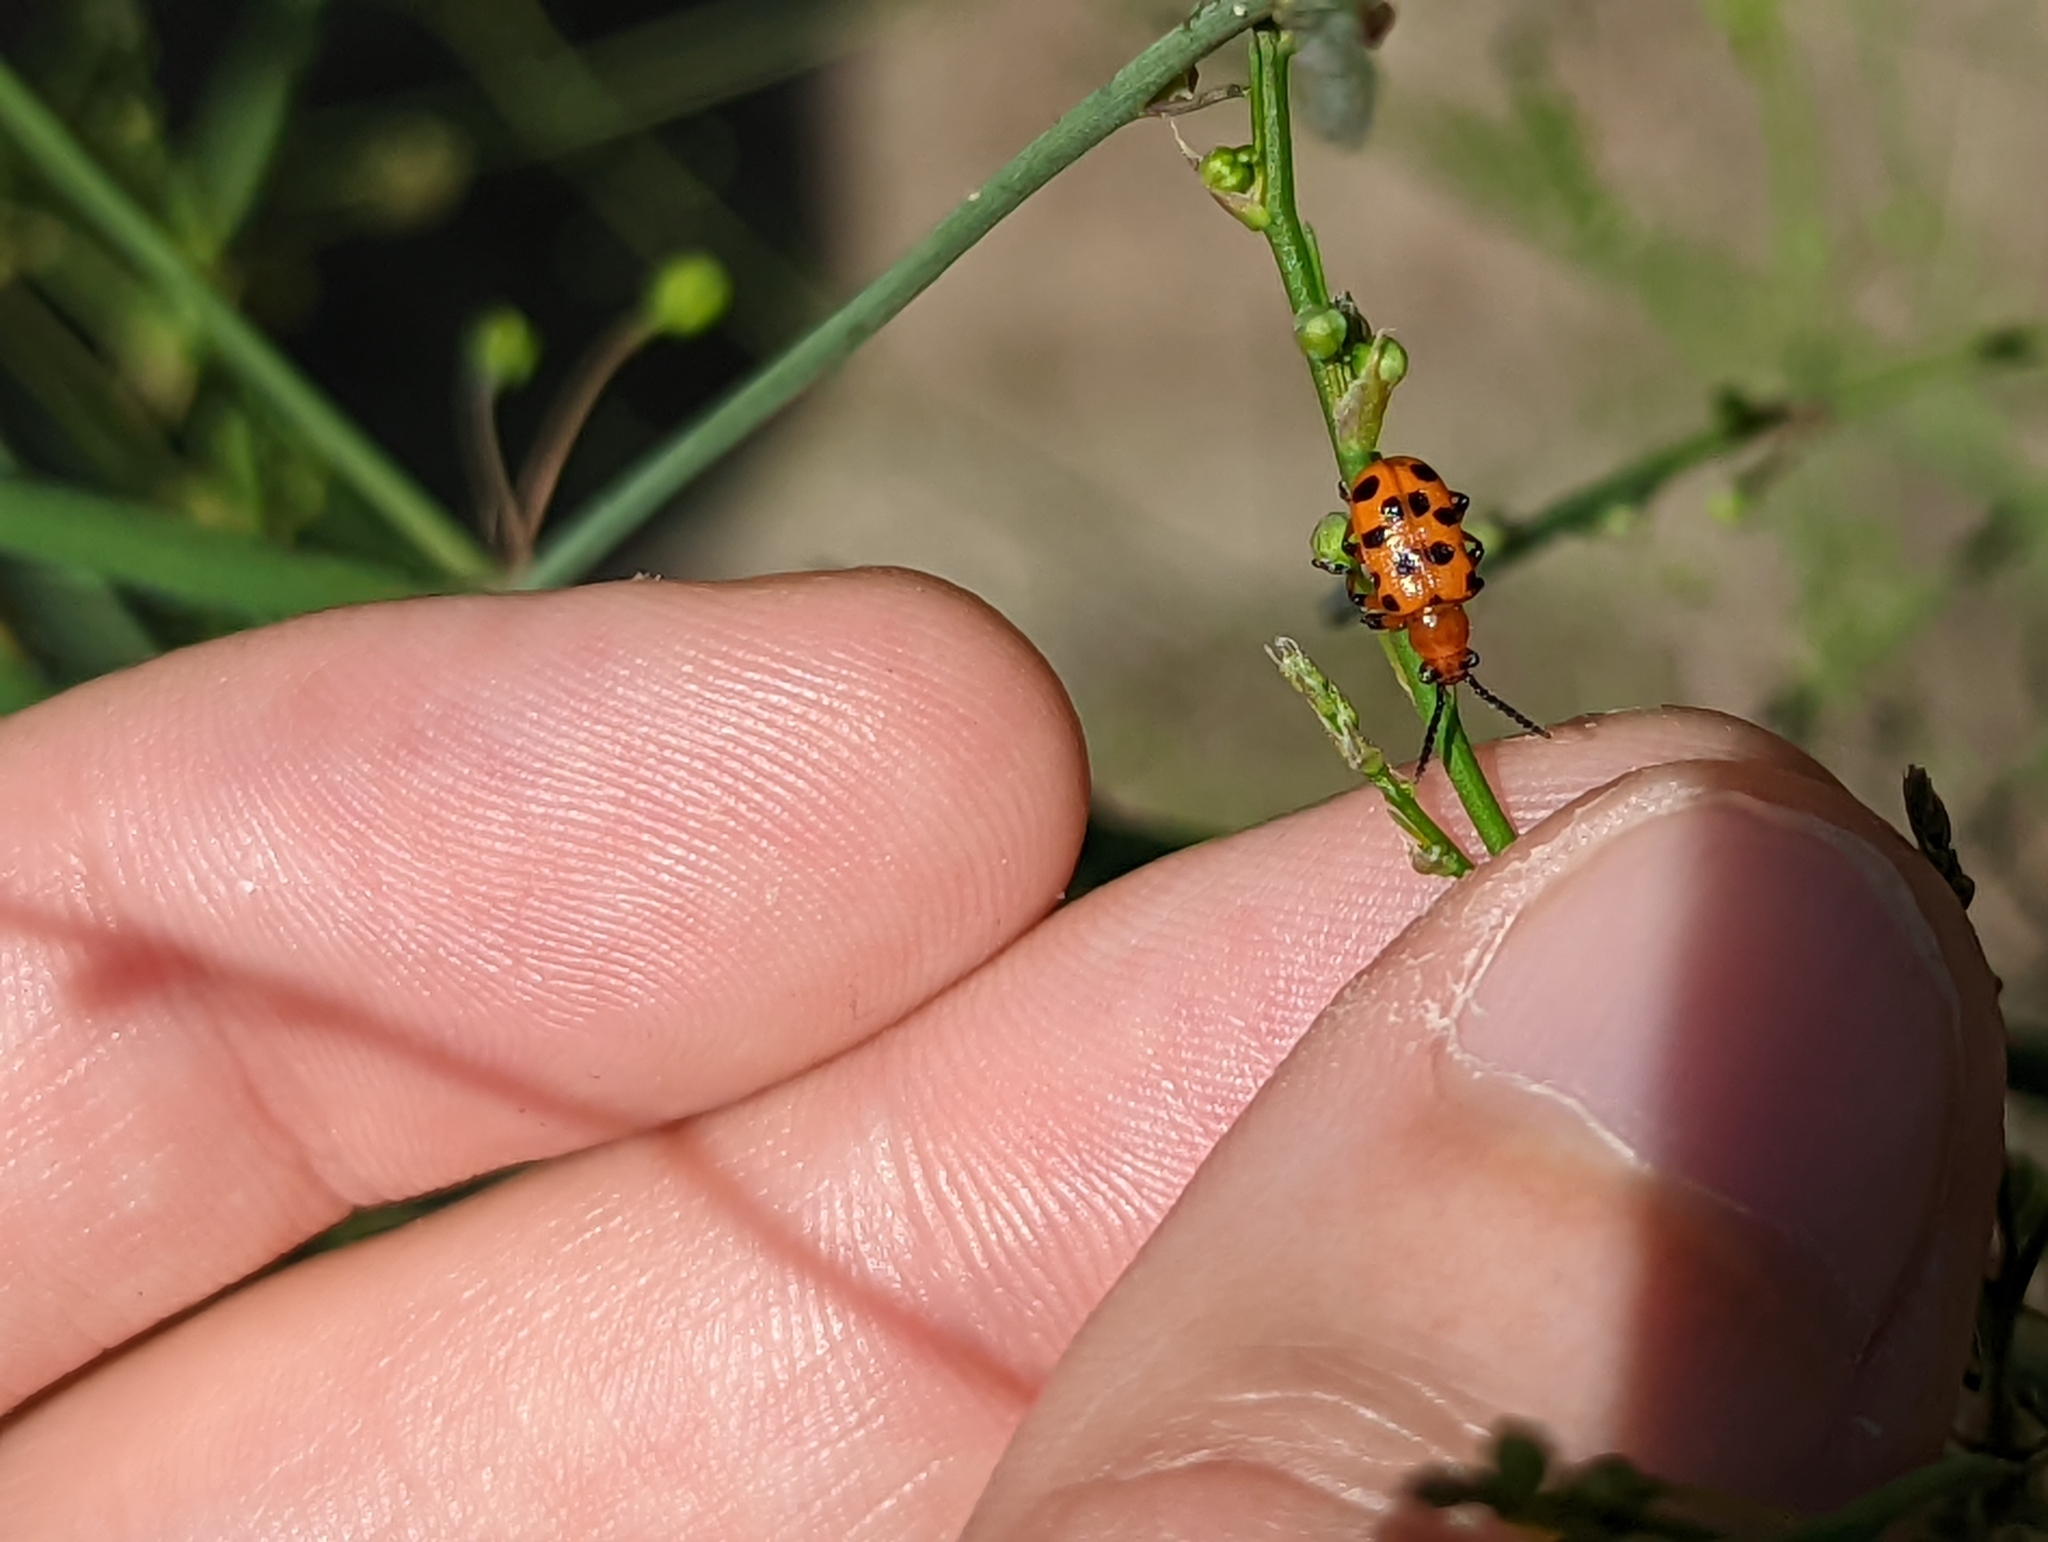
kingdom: Animalia
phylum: Arthropoda
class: Insecta
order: Coleoptera
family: Chrysomelidae
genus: Crioceris
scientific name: Crioceris duodecimpunctata
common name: Twelve-spotted asparagus beetle
